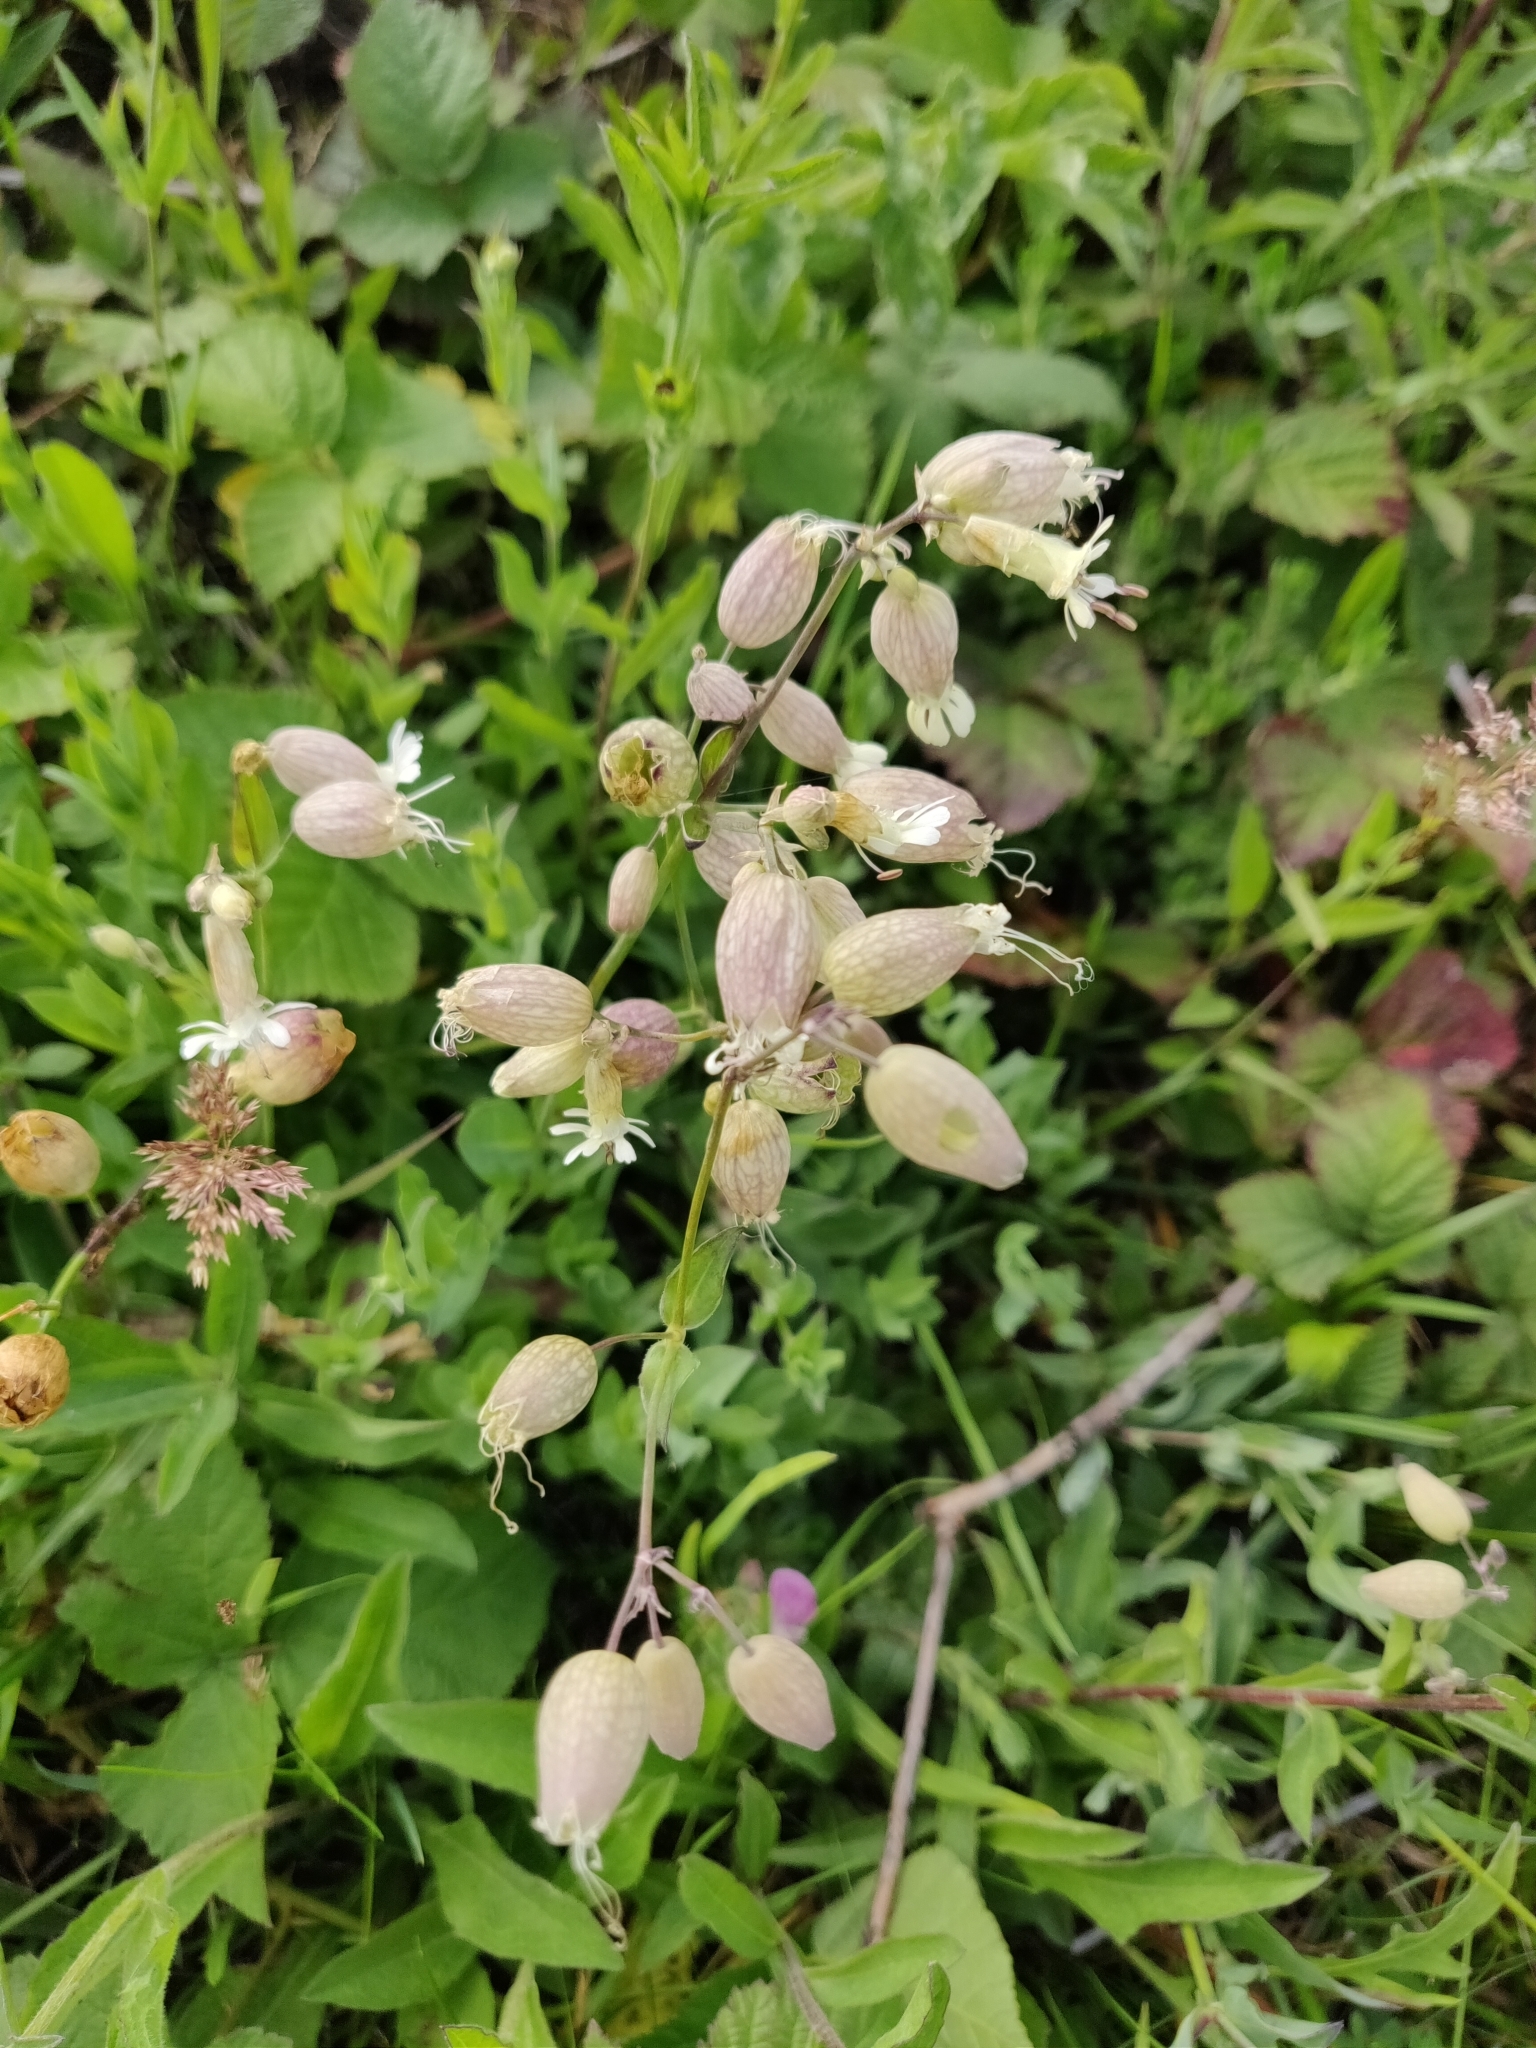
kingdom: Plantae
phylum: Tracheophyta
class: Magnoliopsida
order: Caryophyllales
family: Caryophyllaceae
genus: Silene
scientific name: Silene vulgaris
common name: Bladder campion
